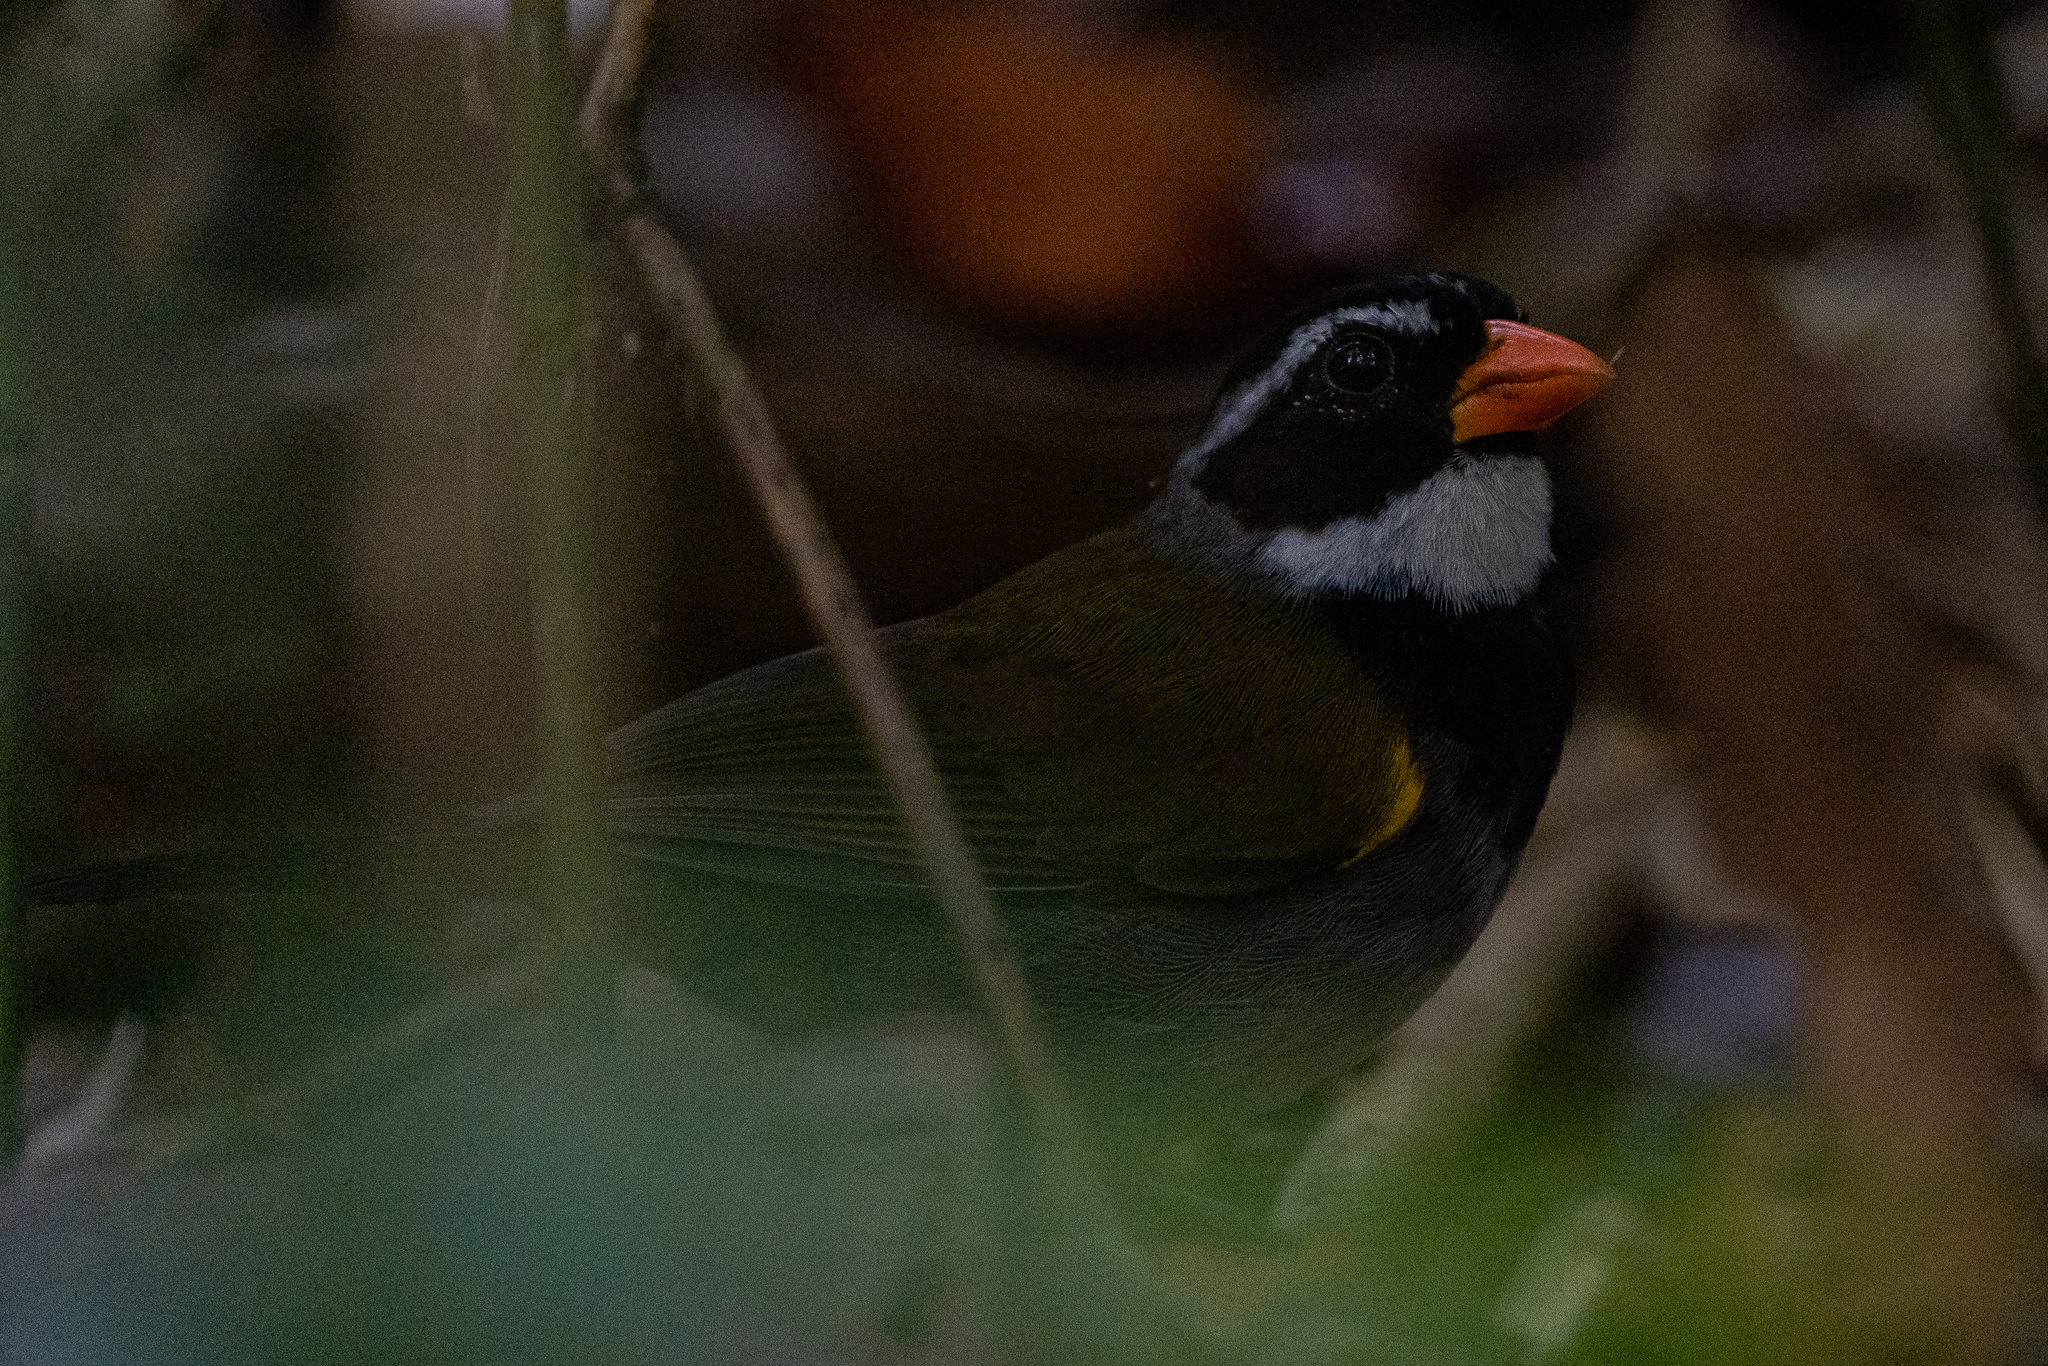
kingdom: Animalia
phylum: Chordata
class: Aves
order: Passeriformes
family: Passerellidae
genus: Arremon
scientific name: Arremon aurantiirostris
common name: Orange-billed sparrow
